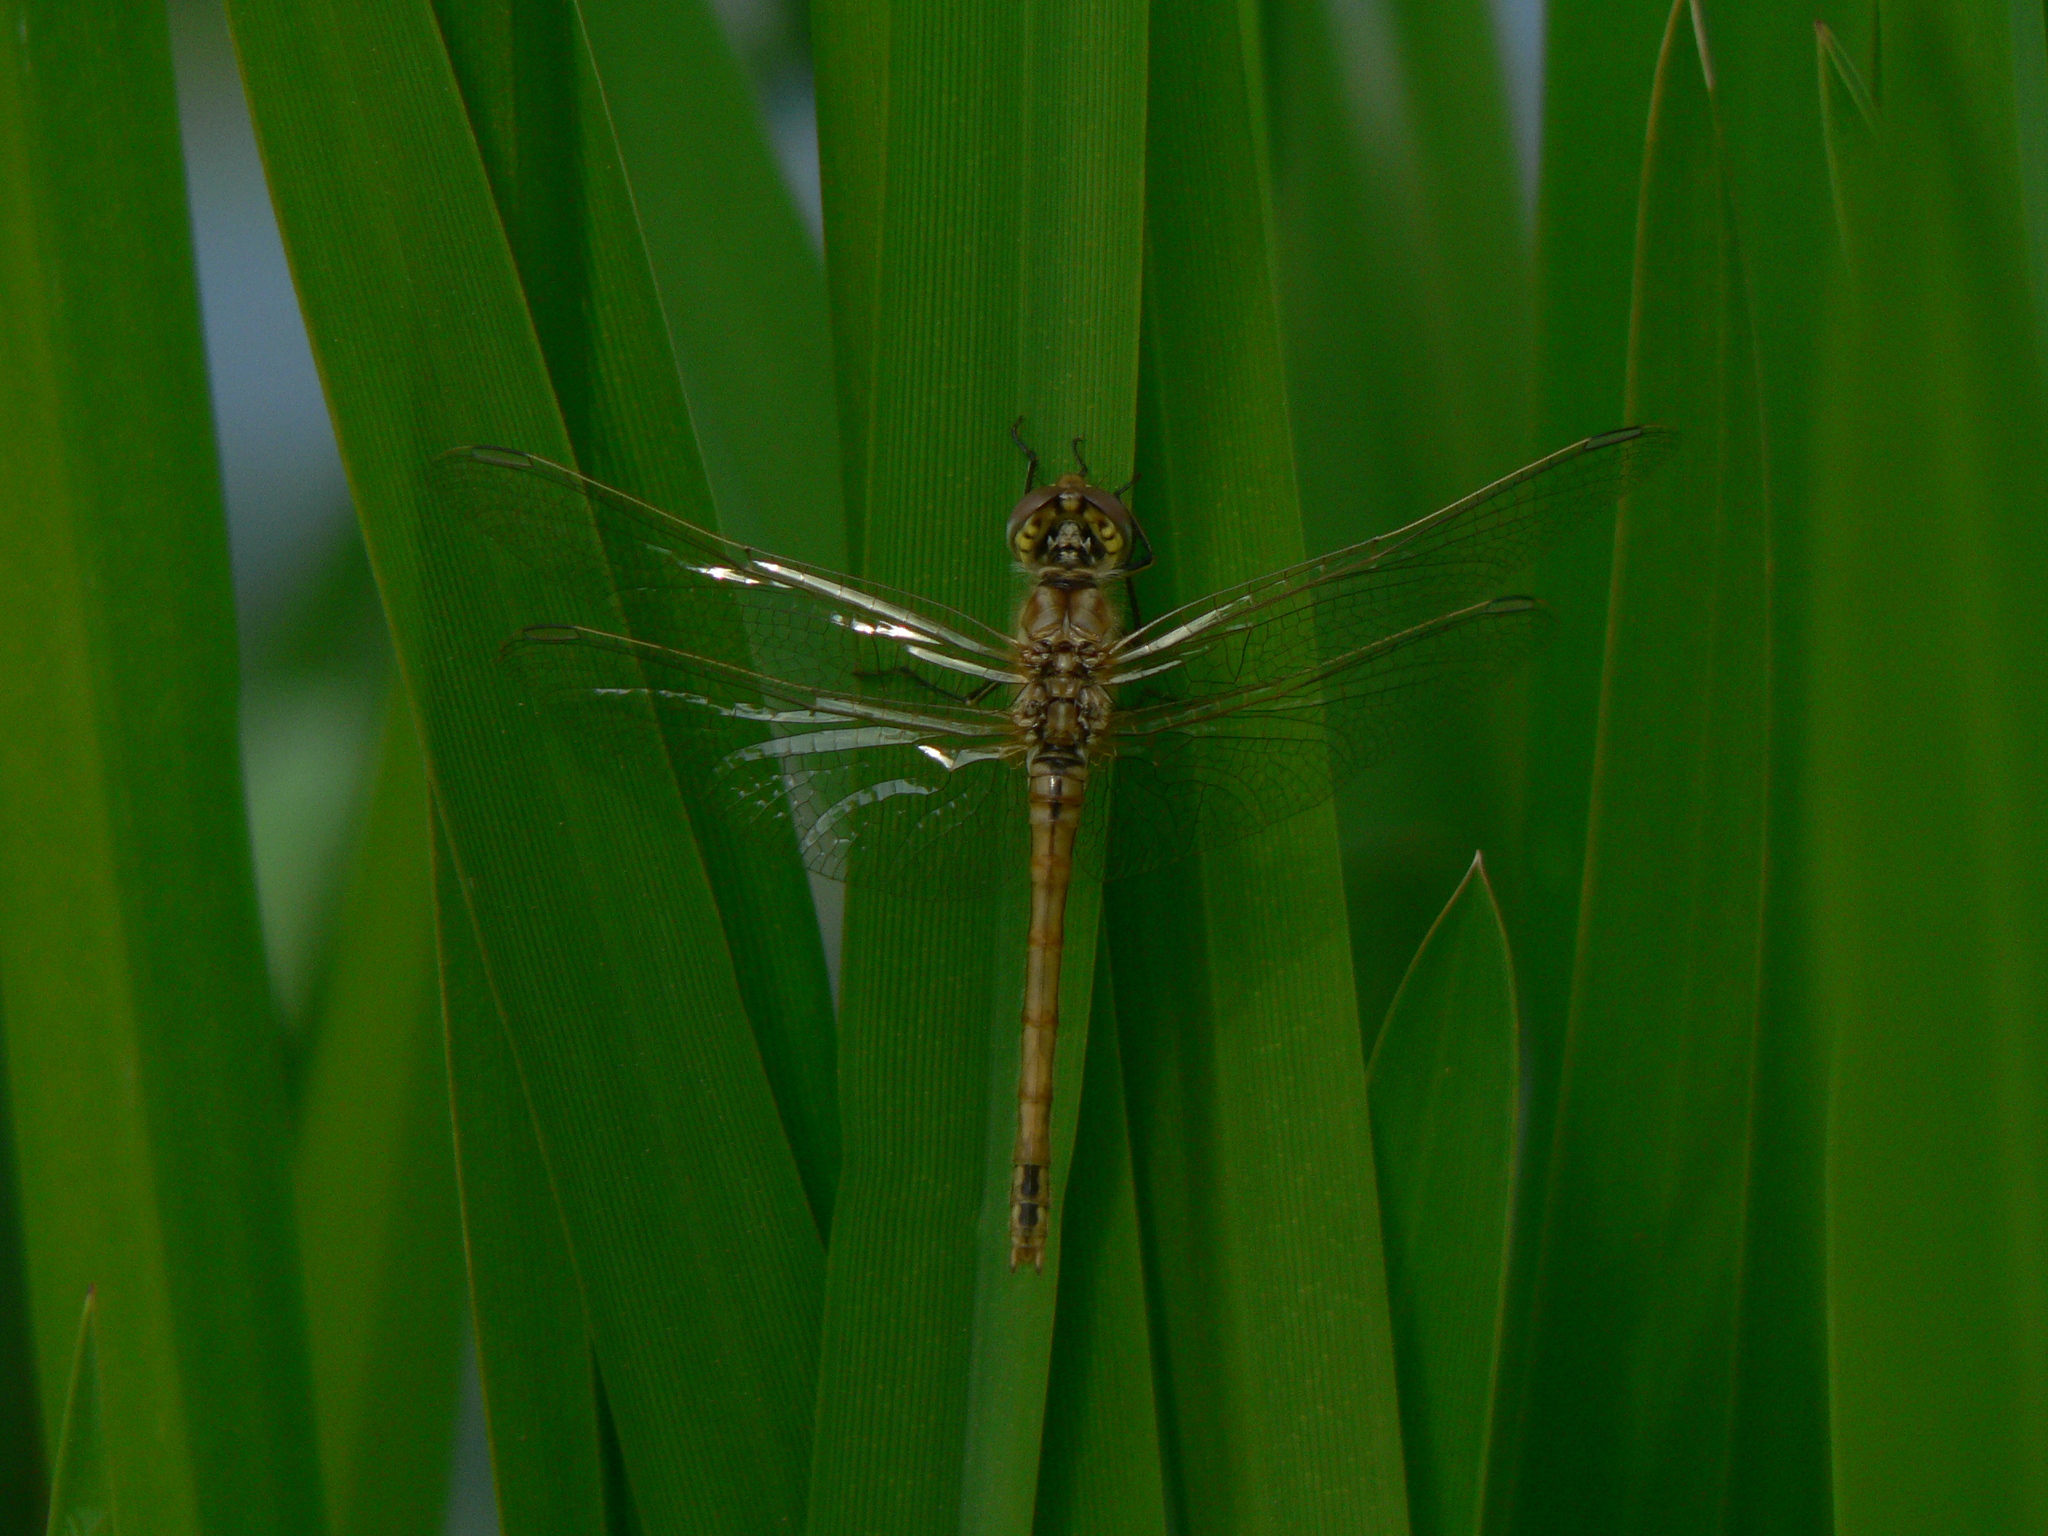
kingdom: Animalia
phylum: Arthropoda
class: Insecta
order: Odonata
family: Libellulidae
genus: Sympetrum
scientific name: Sympetrum fonscolombii
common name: Red-veined darter
